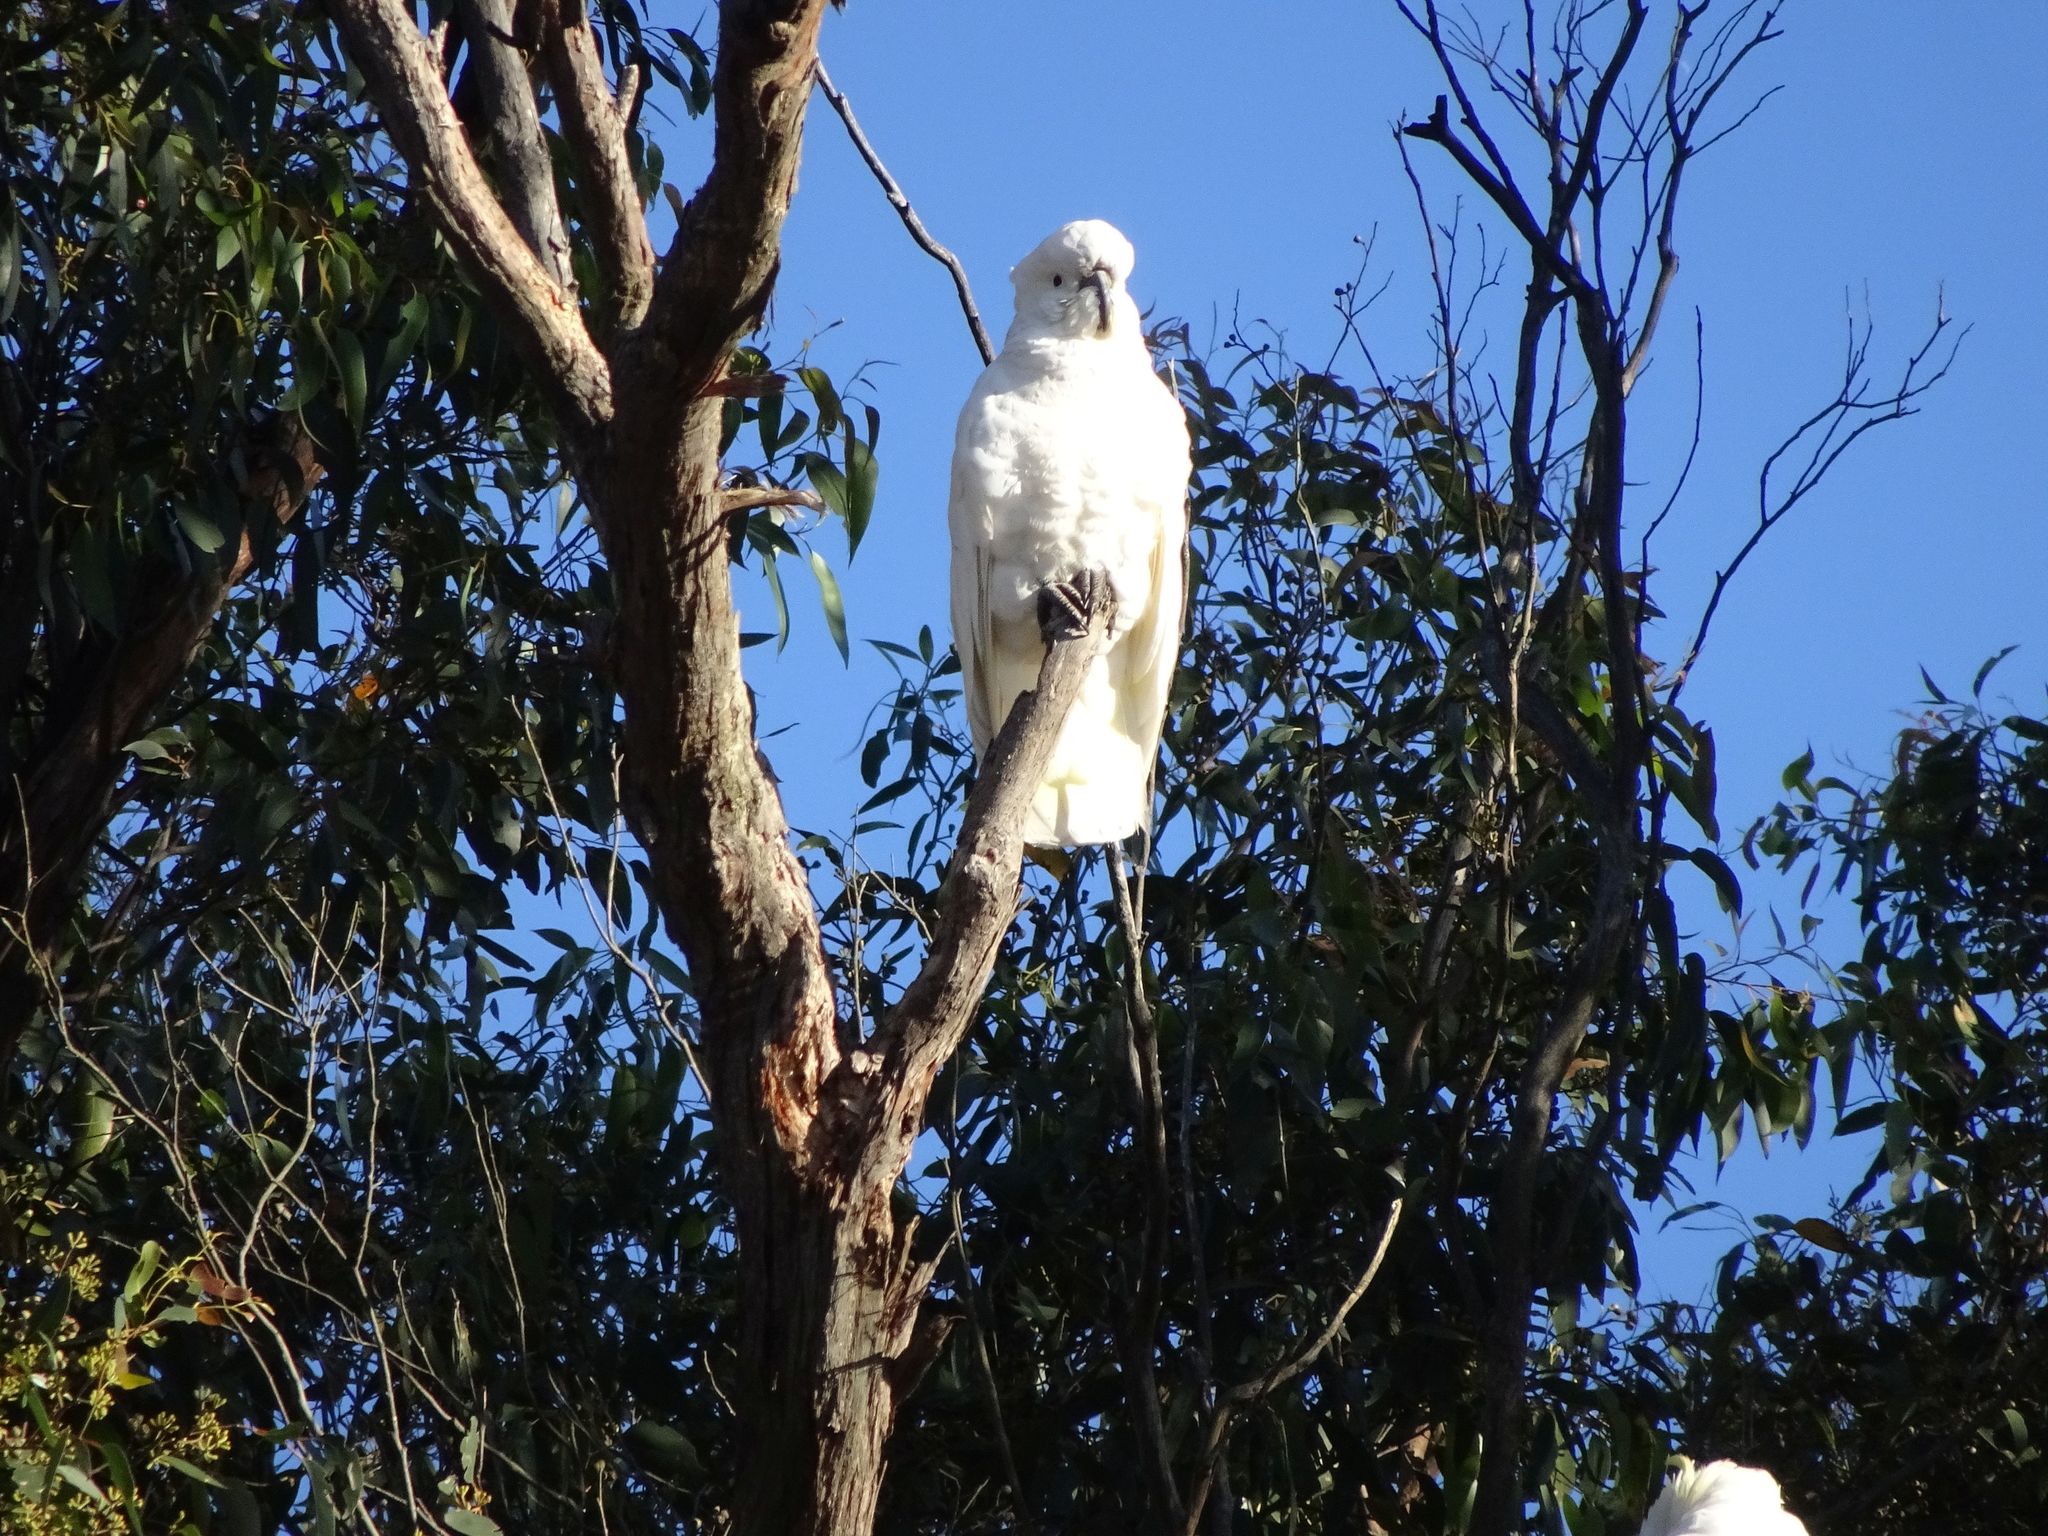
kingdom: Animalia
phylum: Chordata
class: Aves
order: Psittaciformes
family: Psittacidae
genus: Cacatua
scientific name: Cacatua galerita
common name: Sulphur-crested cockatoo
